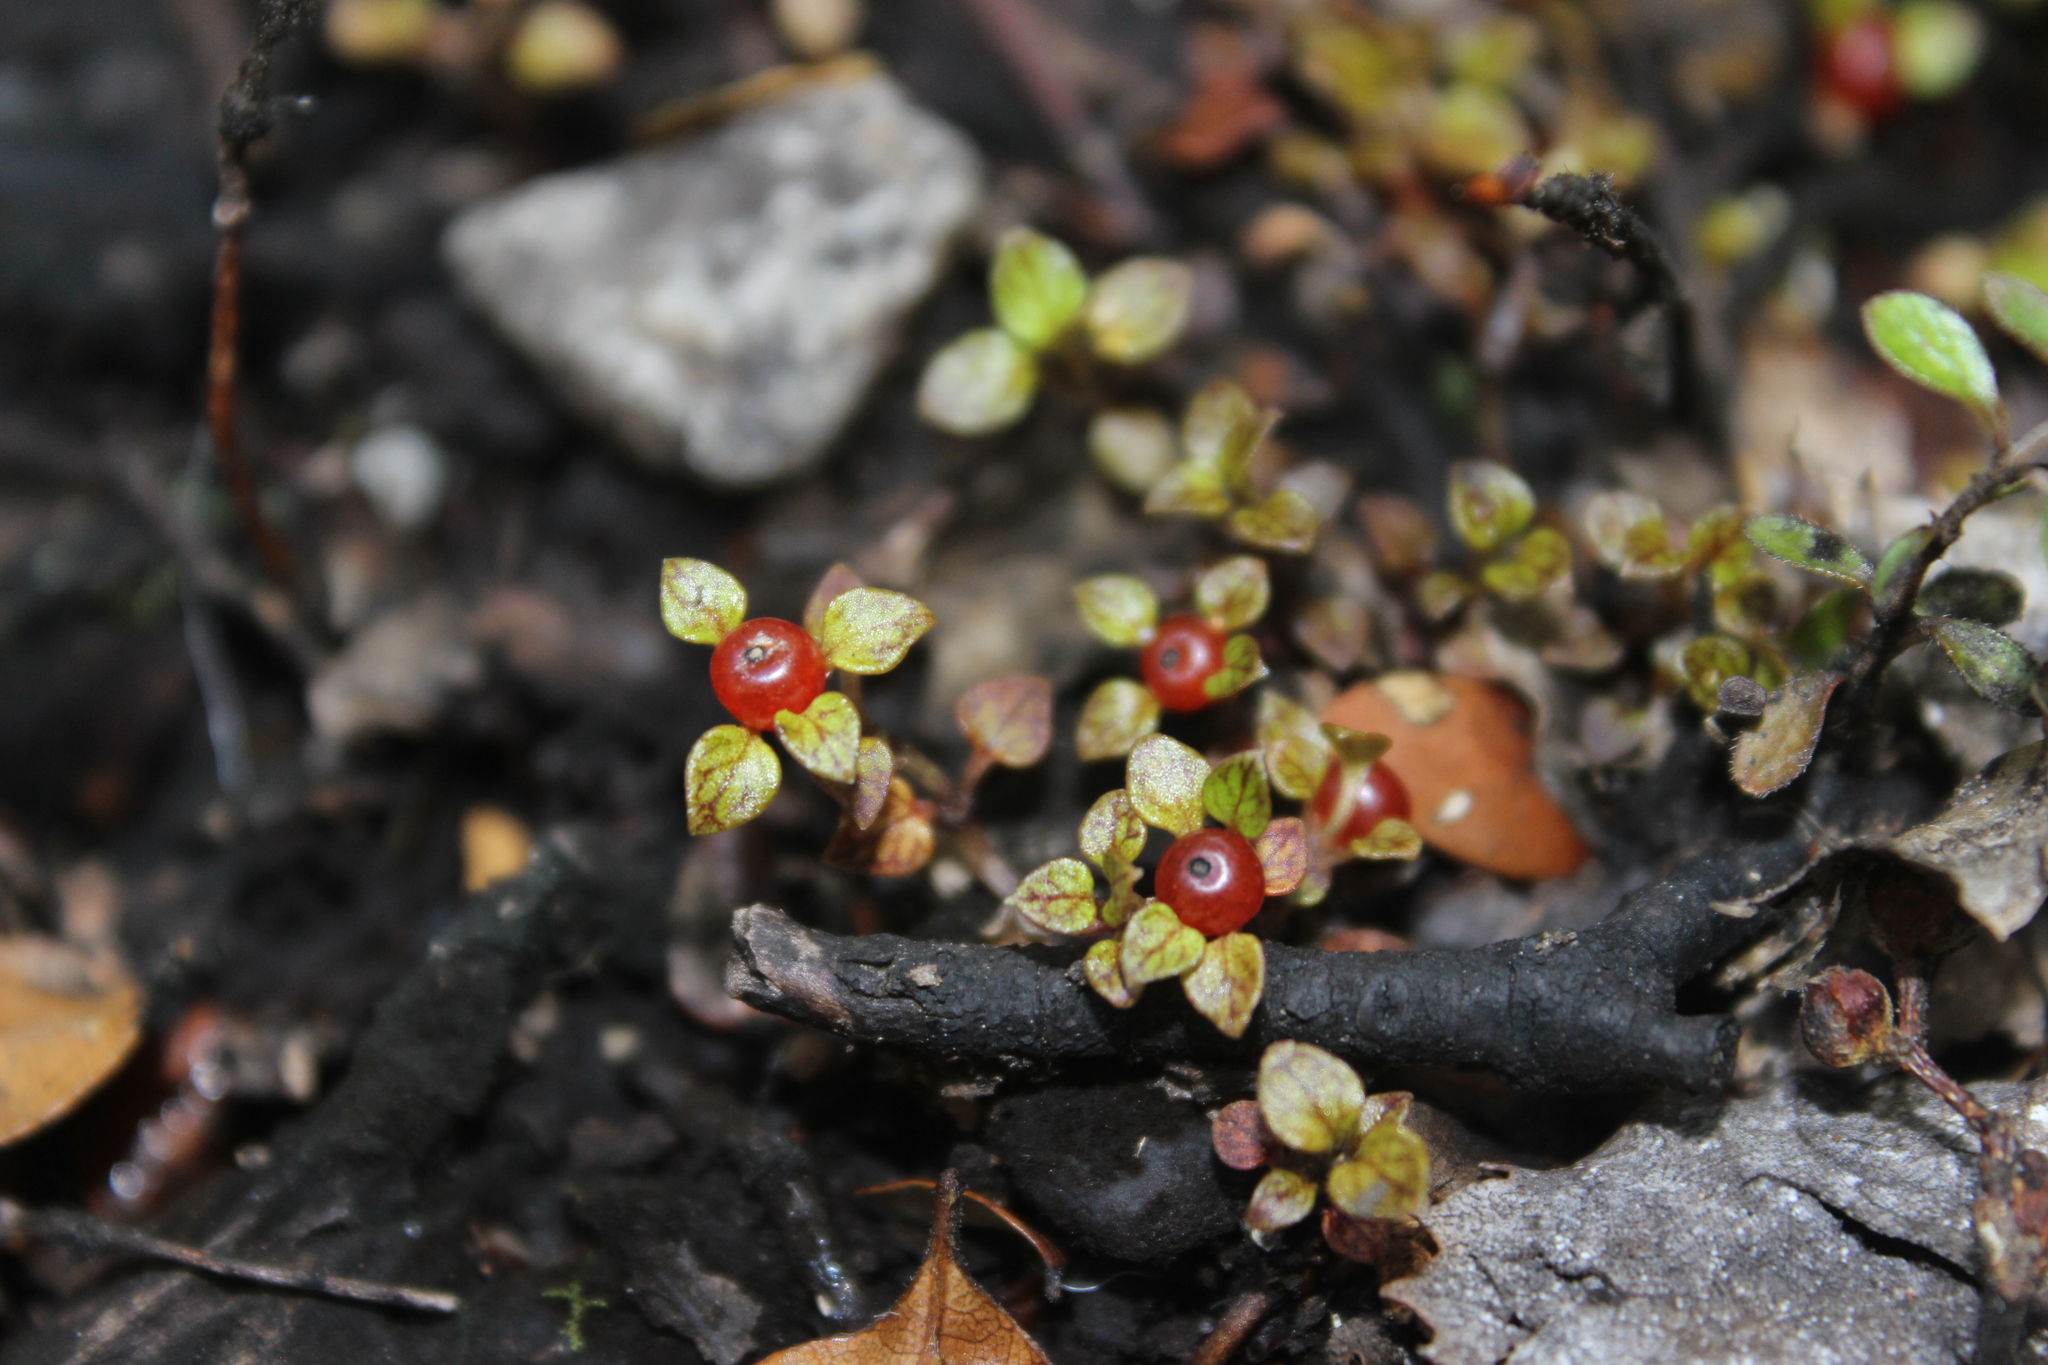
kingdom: Plantae
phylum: Tracheophyta
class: Magnoliopsida
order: Gentianales
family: Rubiaceae
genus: Nertera
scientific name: Nertera granadensis
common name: Beadplant
